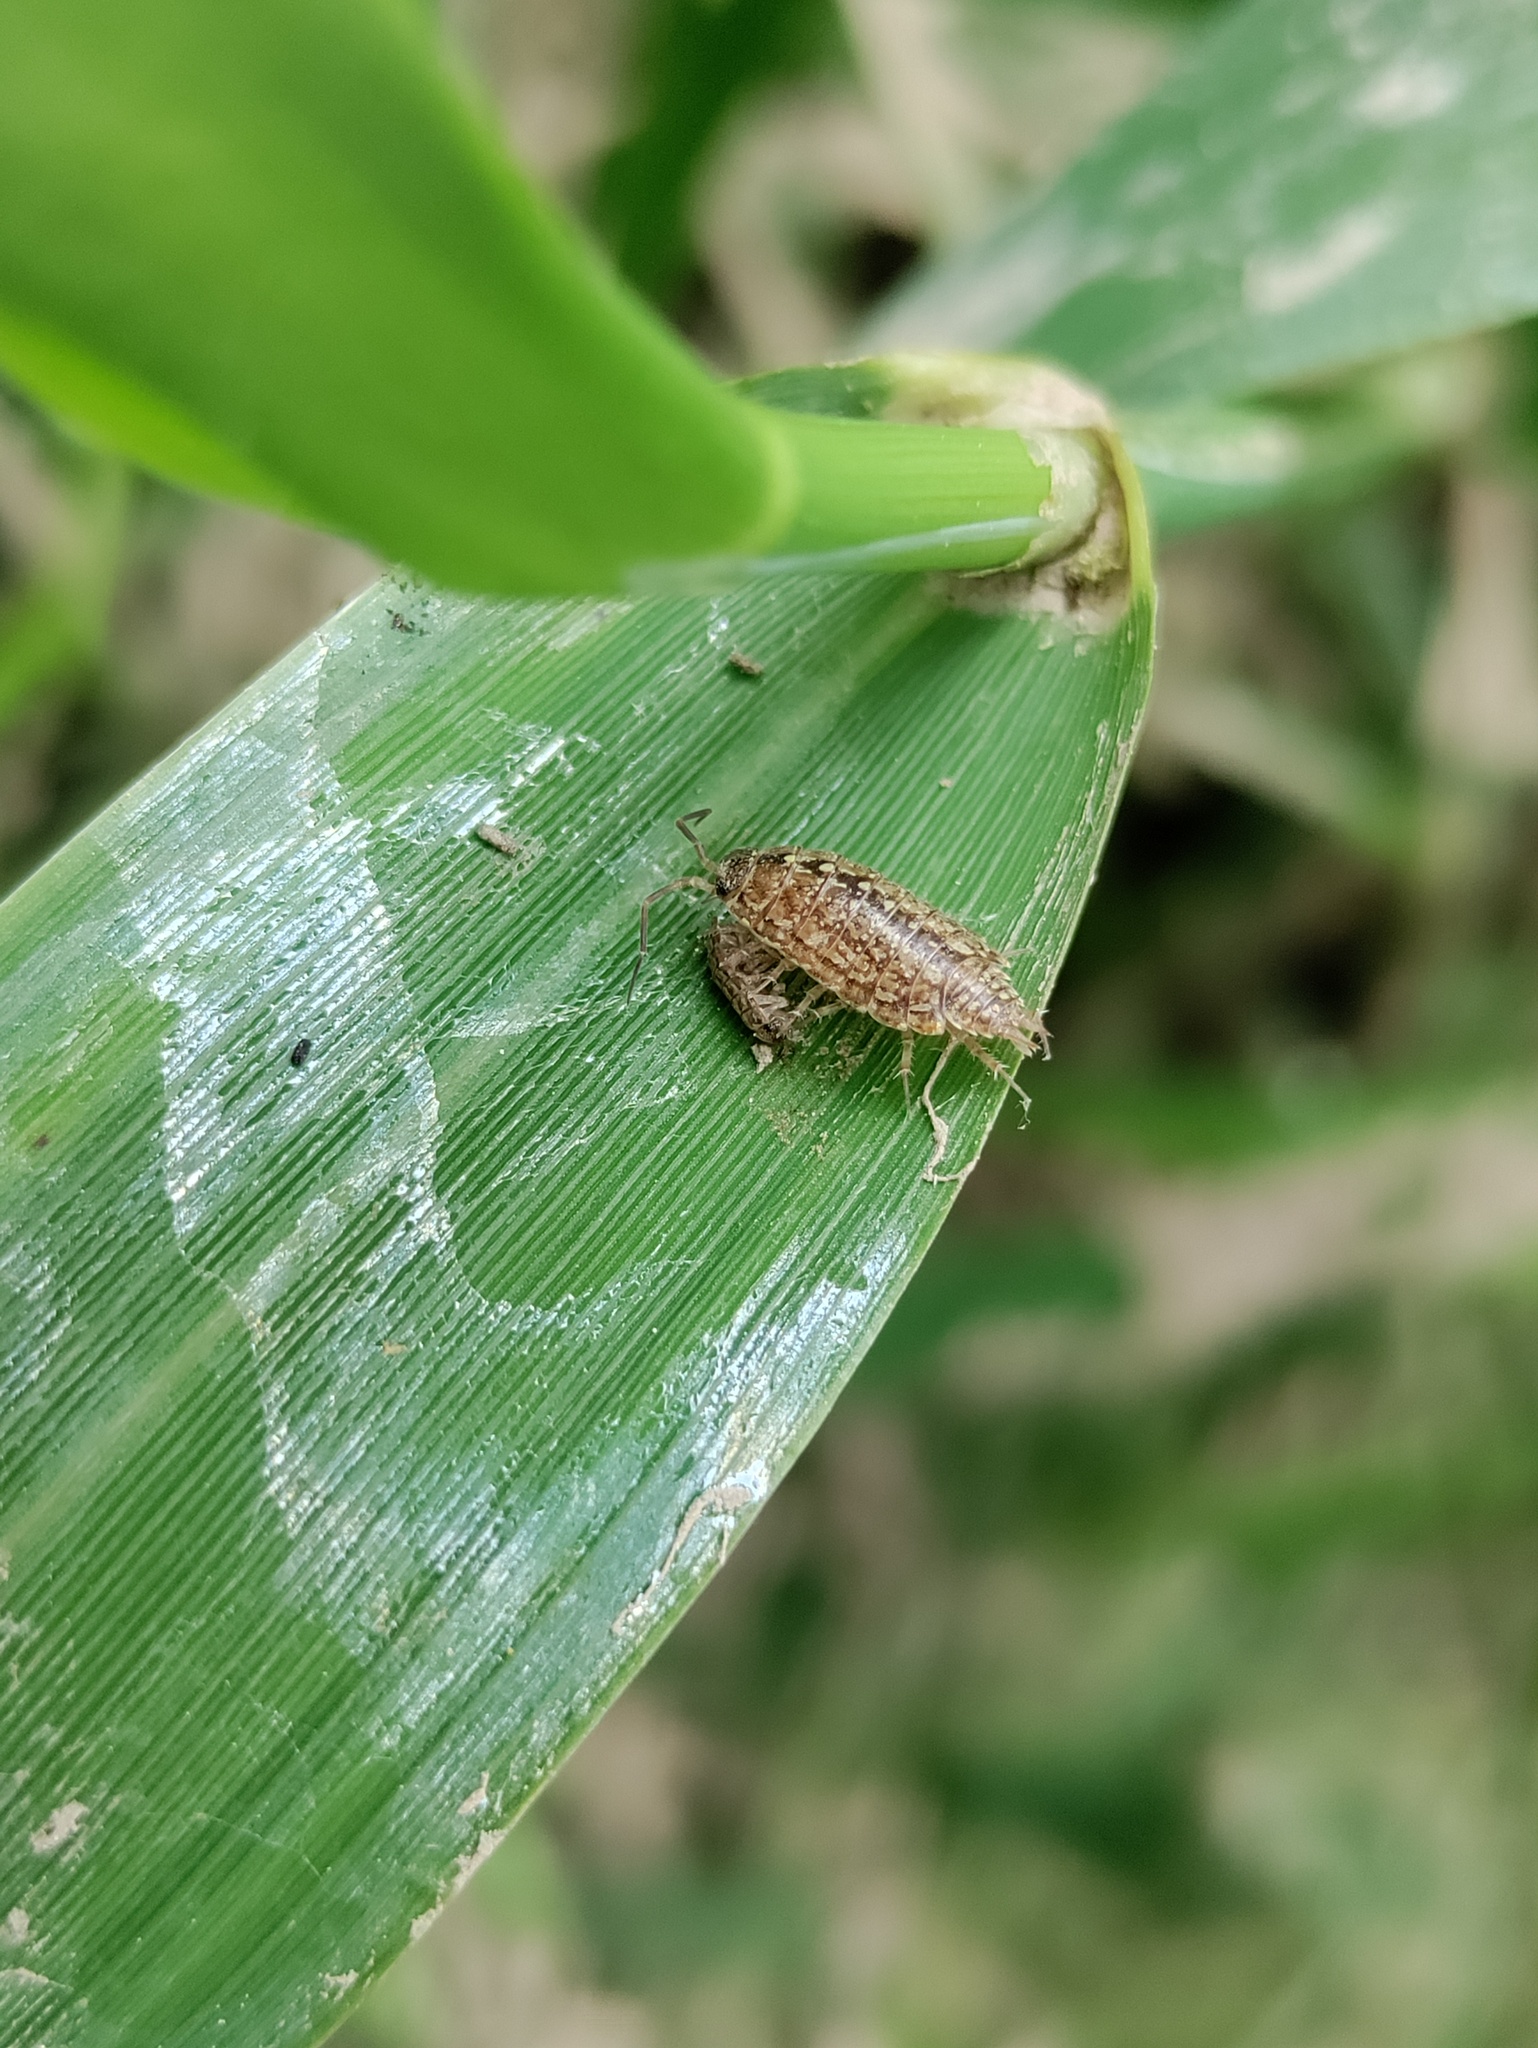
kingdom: Animalia
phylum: Arthropoda
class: Malacostraca
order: Isopoda
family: Philosciidae
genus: Philoscia
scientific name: Philoscia affinis
